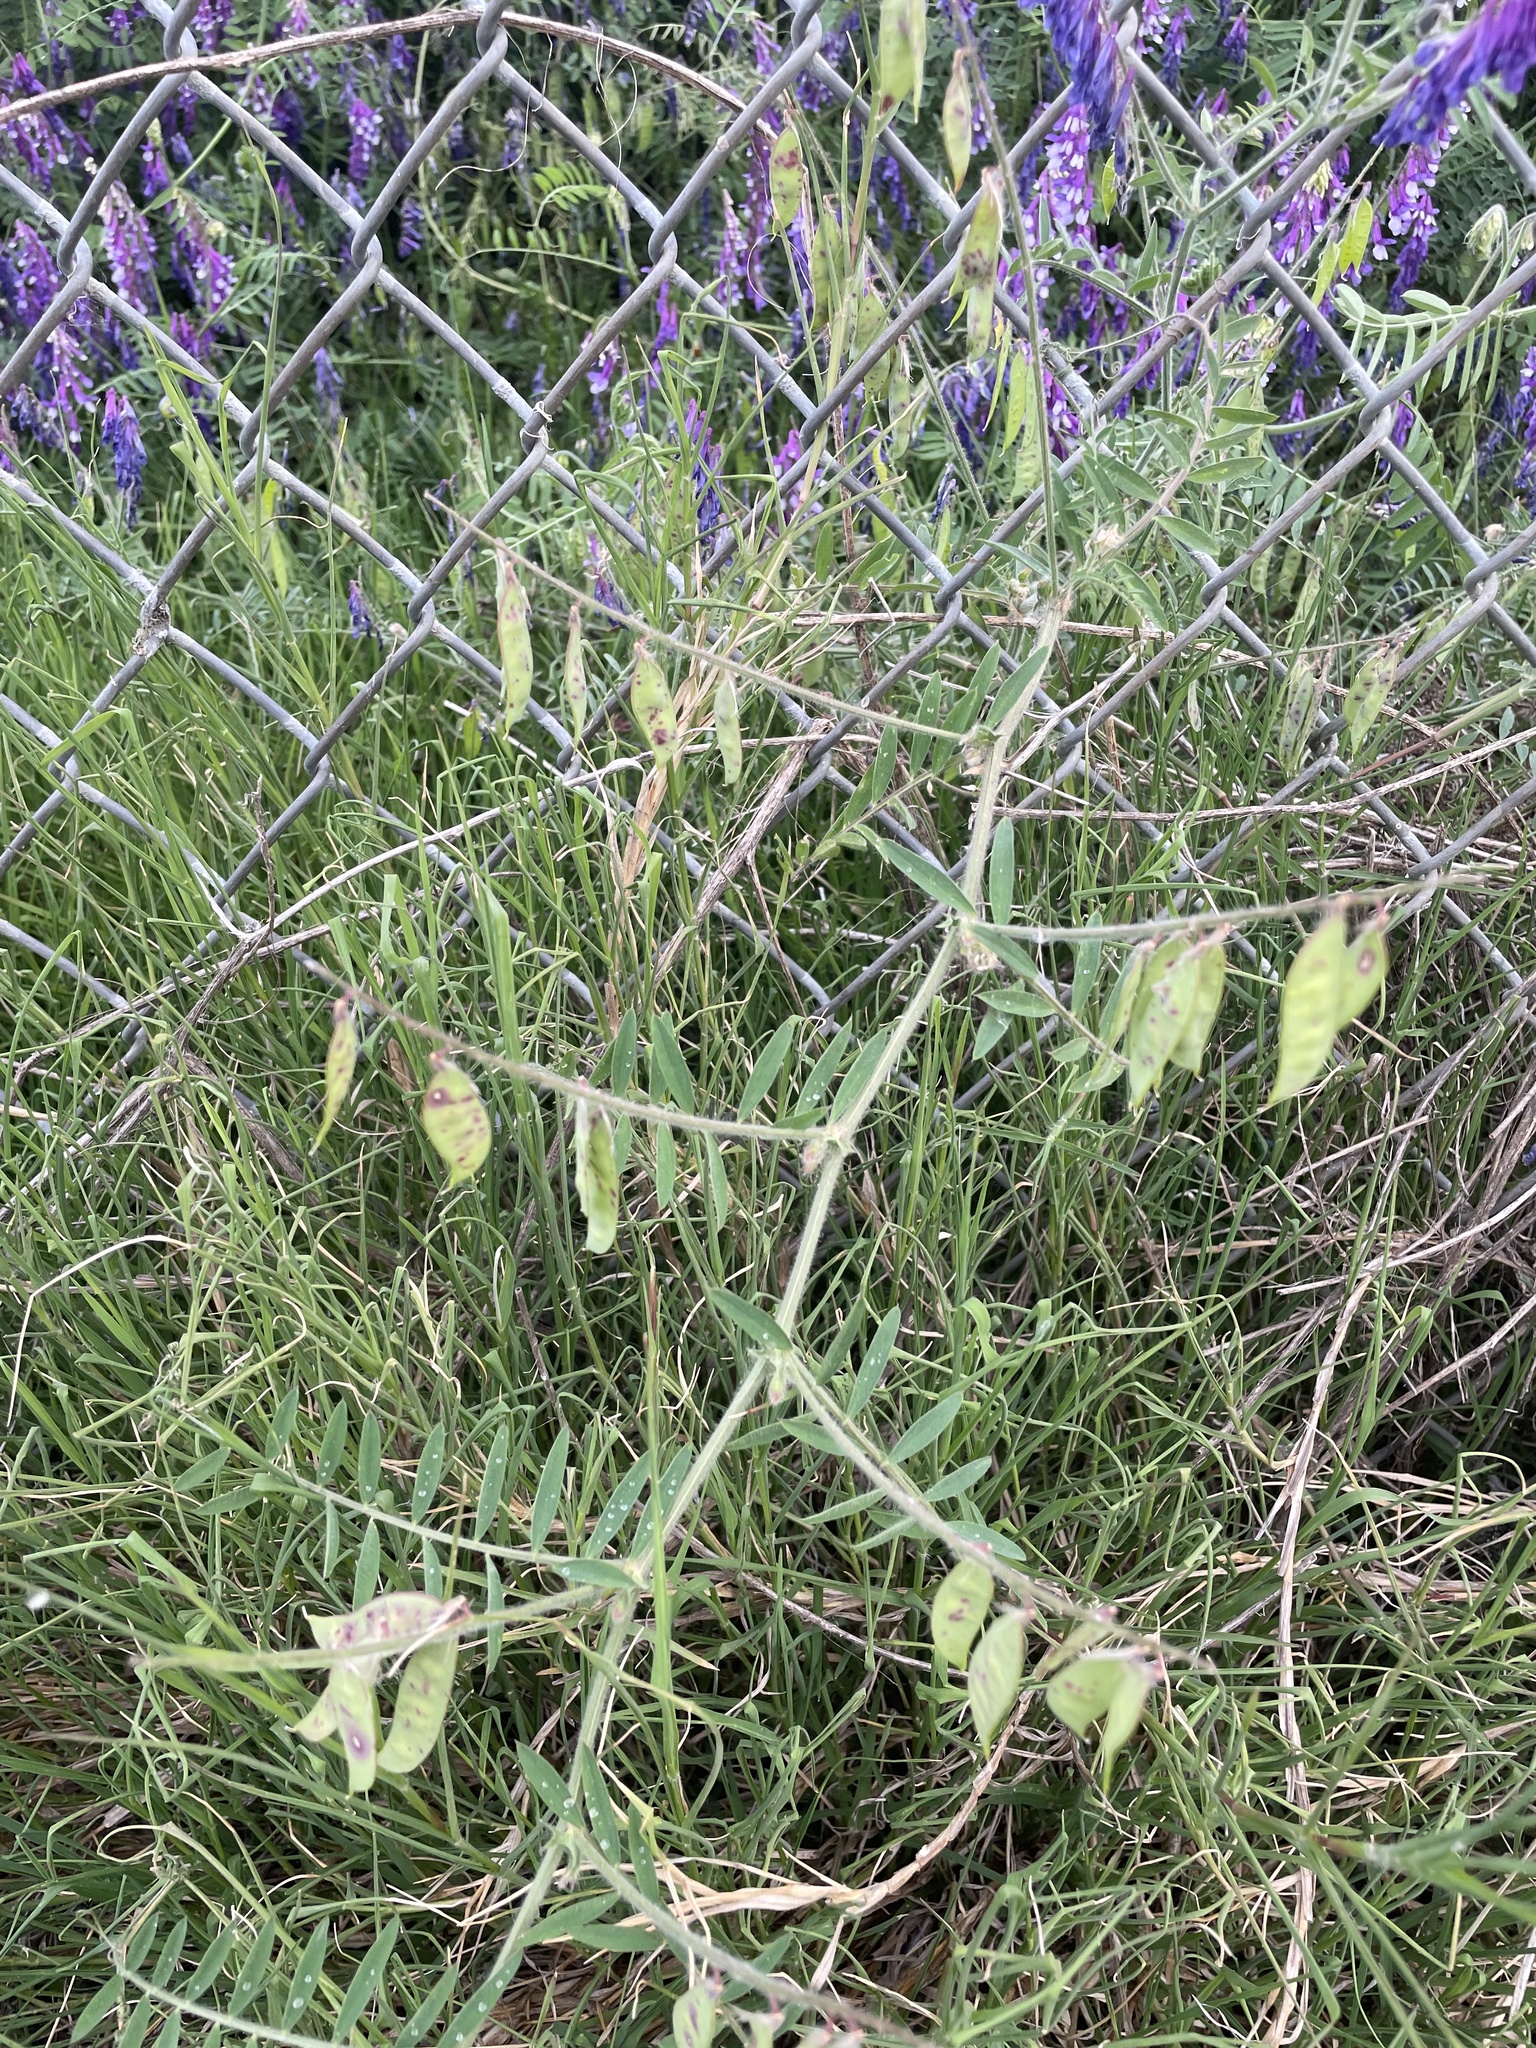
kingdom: Plantae
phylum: Tracheophyta
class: Magnoliopsida
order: Fabales
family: Fabaceae
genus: Vicia
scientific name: Vicia villosa
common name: Fodder vetch
